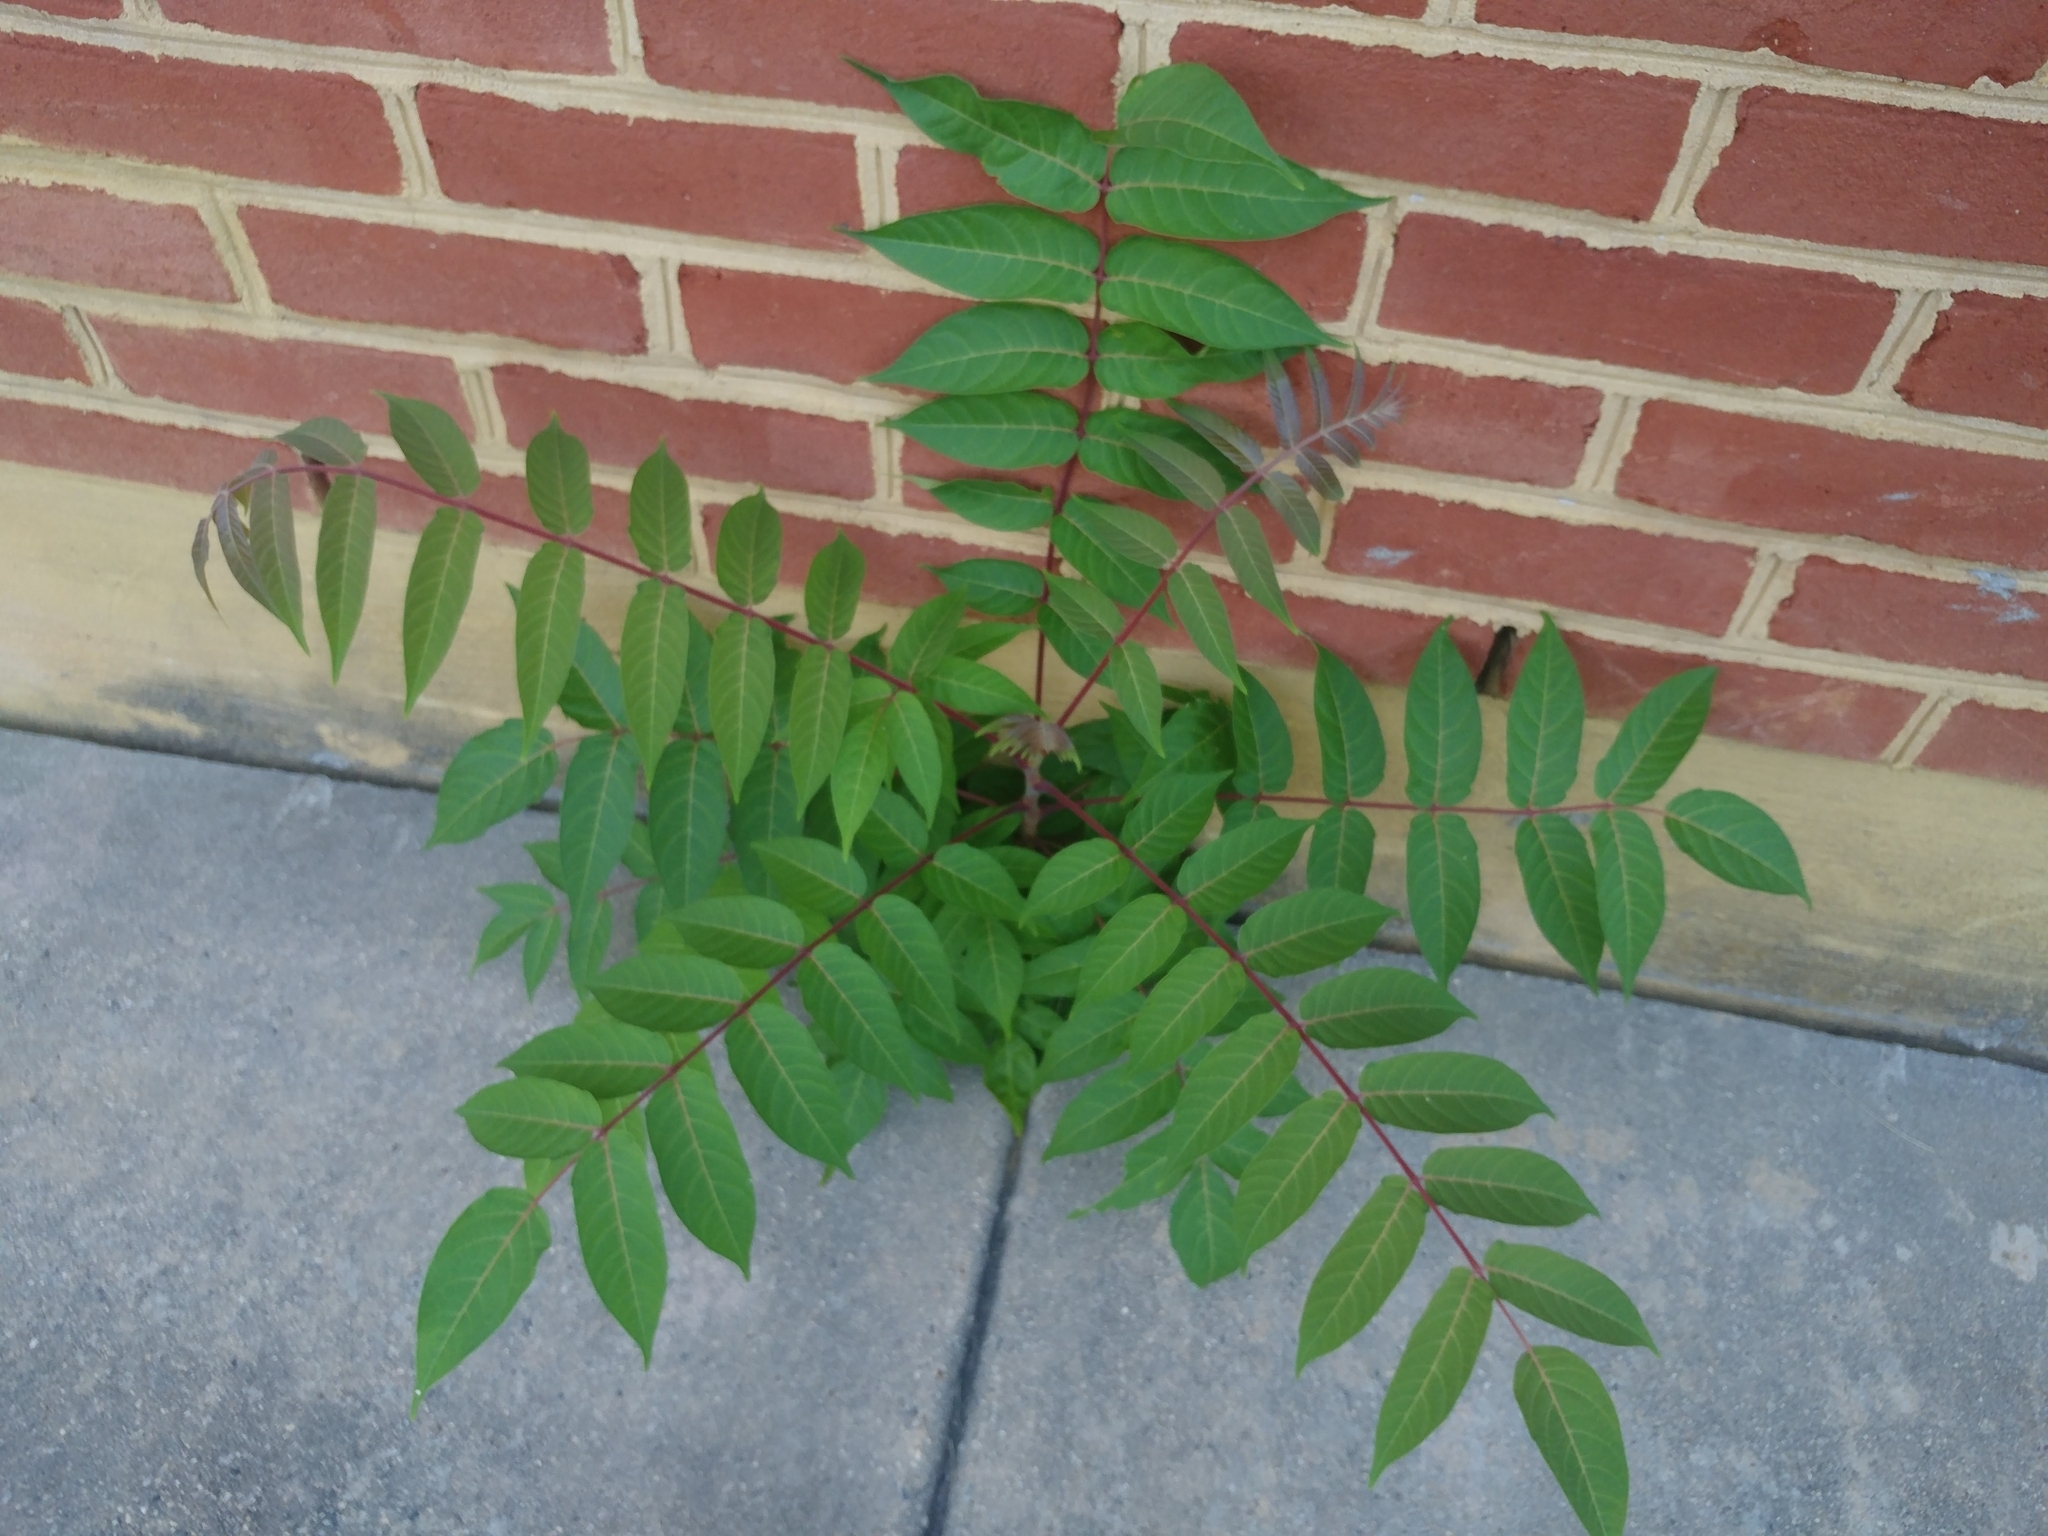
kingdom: Plantae
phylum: Tracheophyta
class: Magnoliopsida
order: Sapindales
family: Simaroubaceae
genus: Ailanthus
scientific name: Ailanthus altissima
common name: Tree-of-heaven
